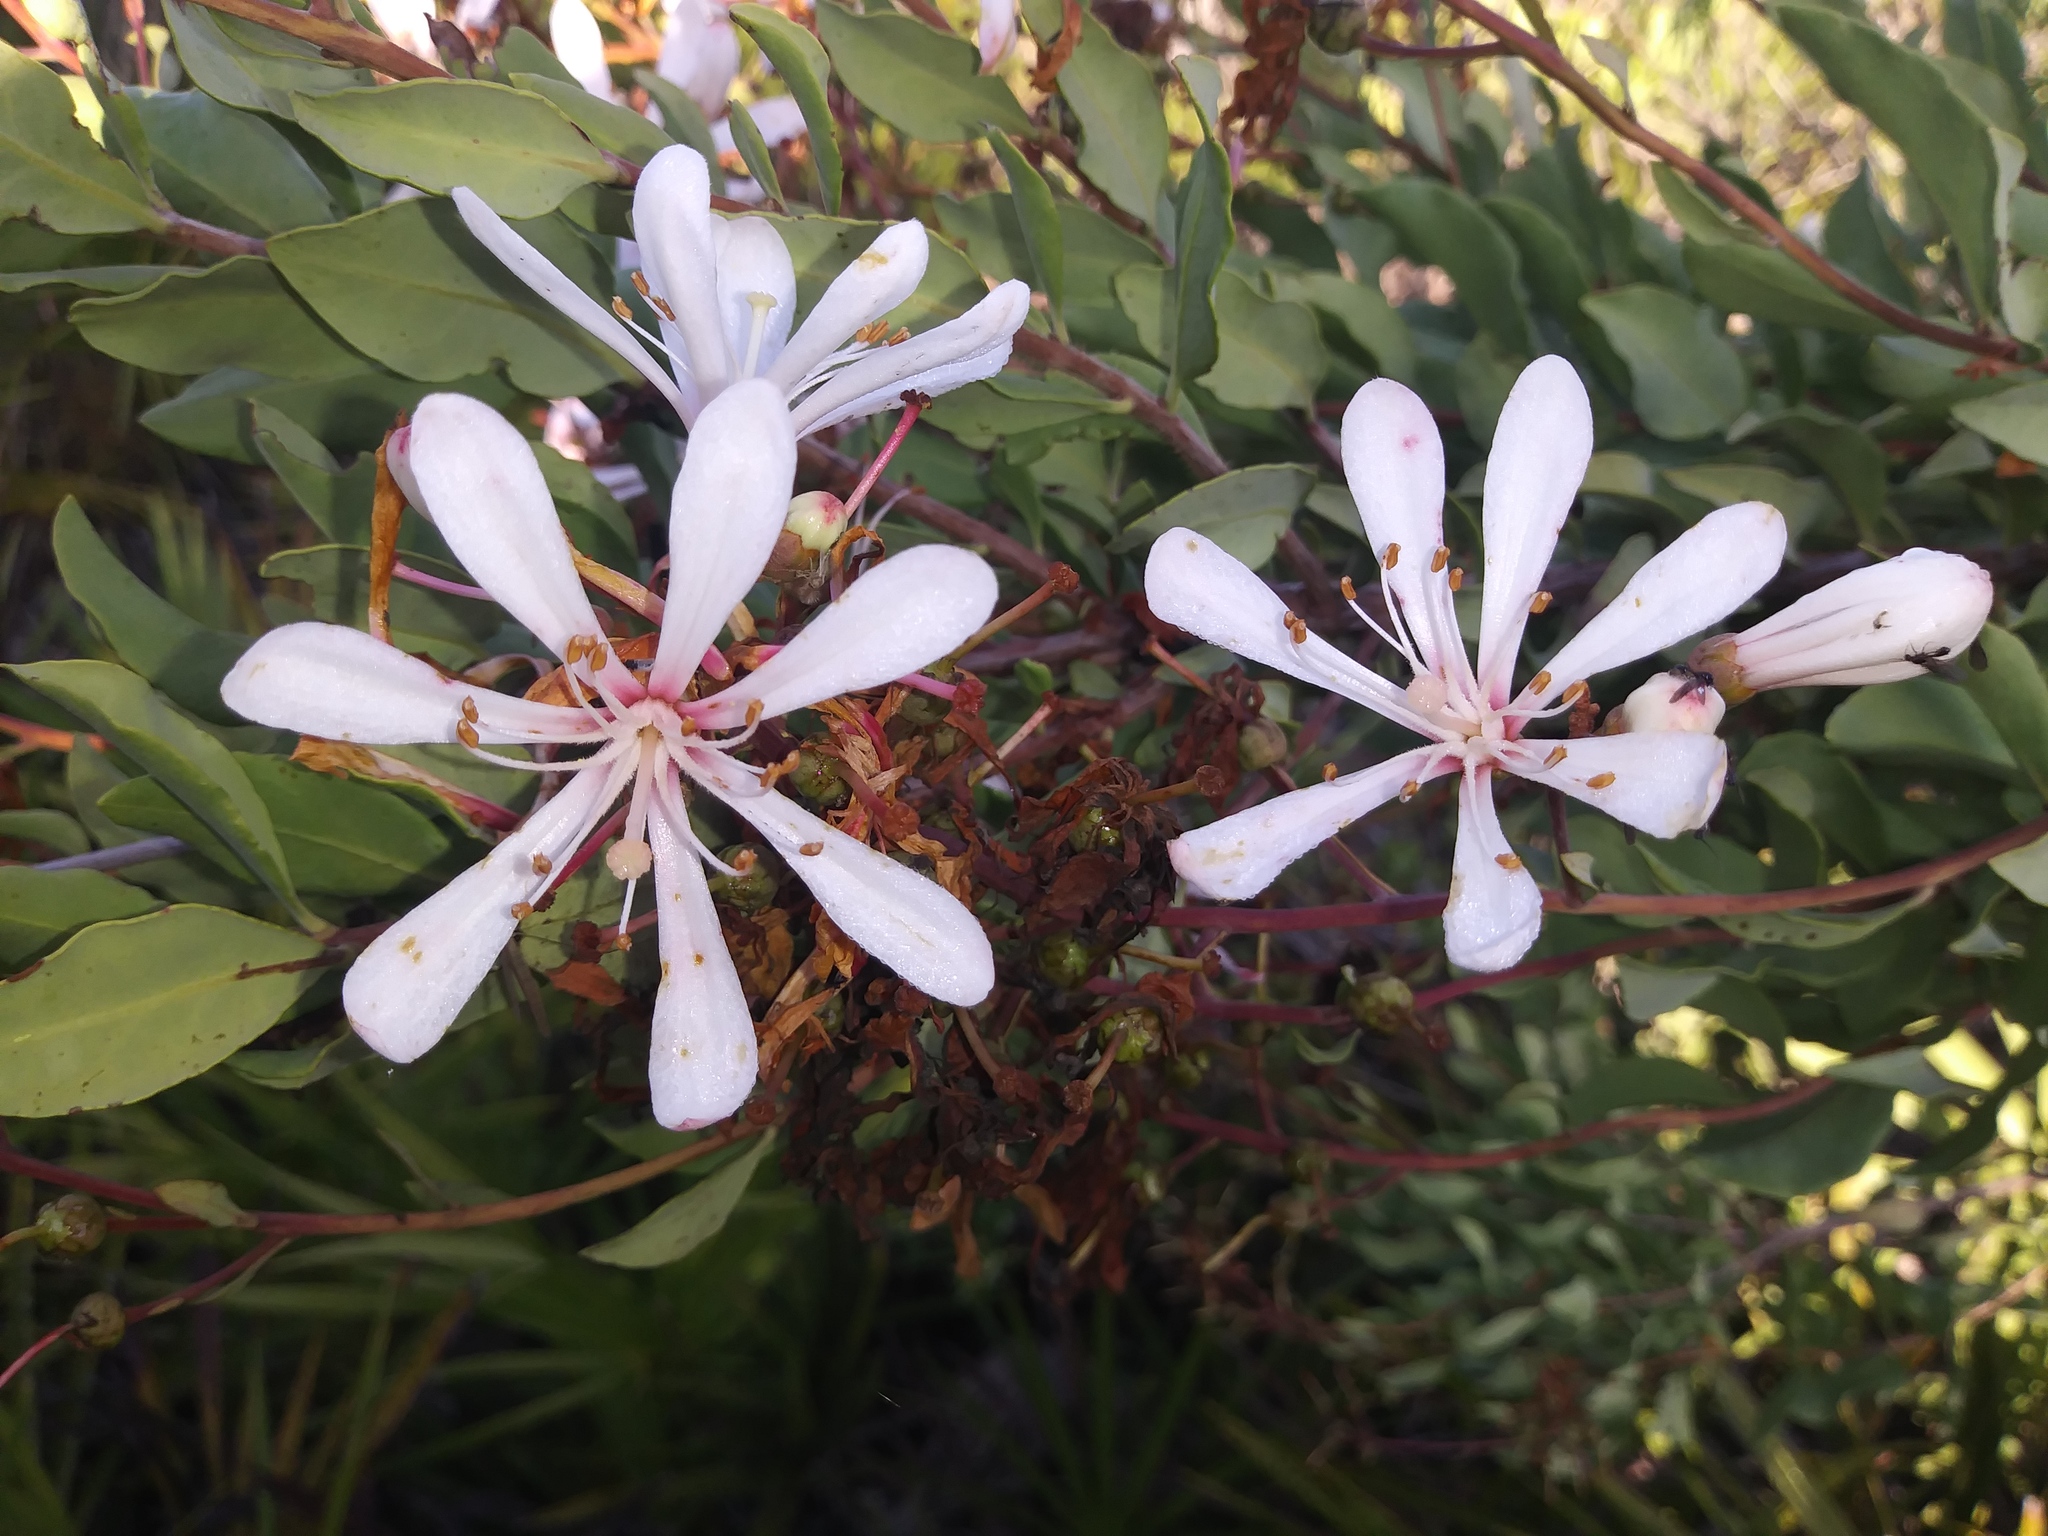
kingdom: Plantae
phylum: Tracheophyta
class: Magnoliopsida
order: Ericales
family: Ericaceae
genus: Bejaria
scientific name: Bejaria racemosa
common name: Tarflower
